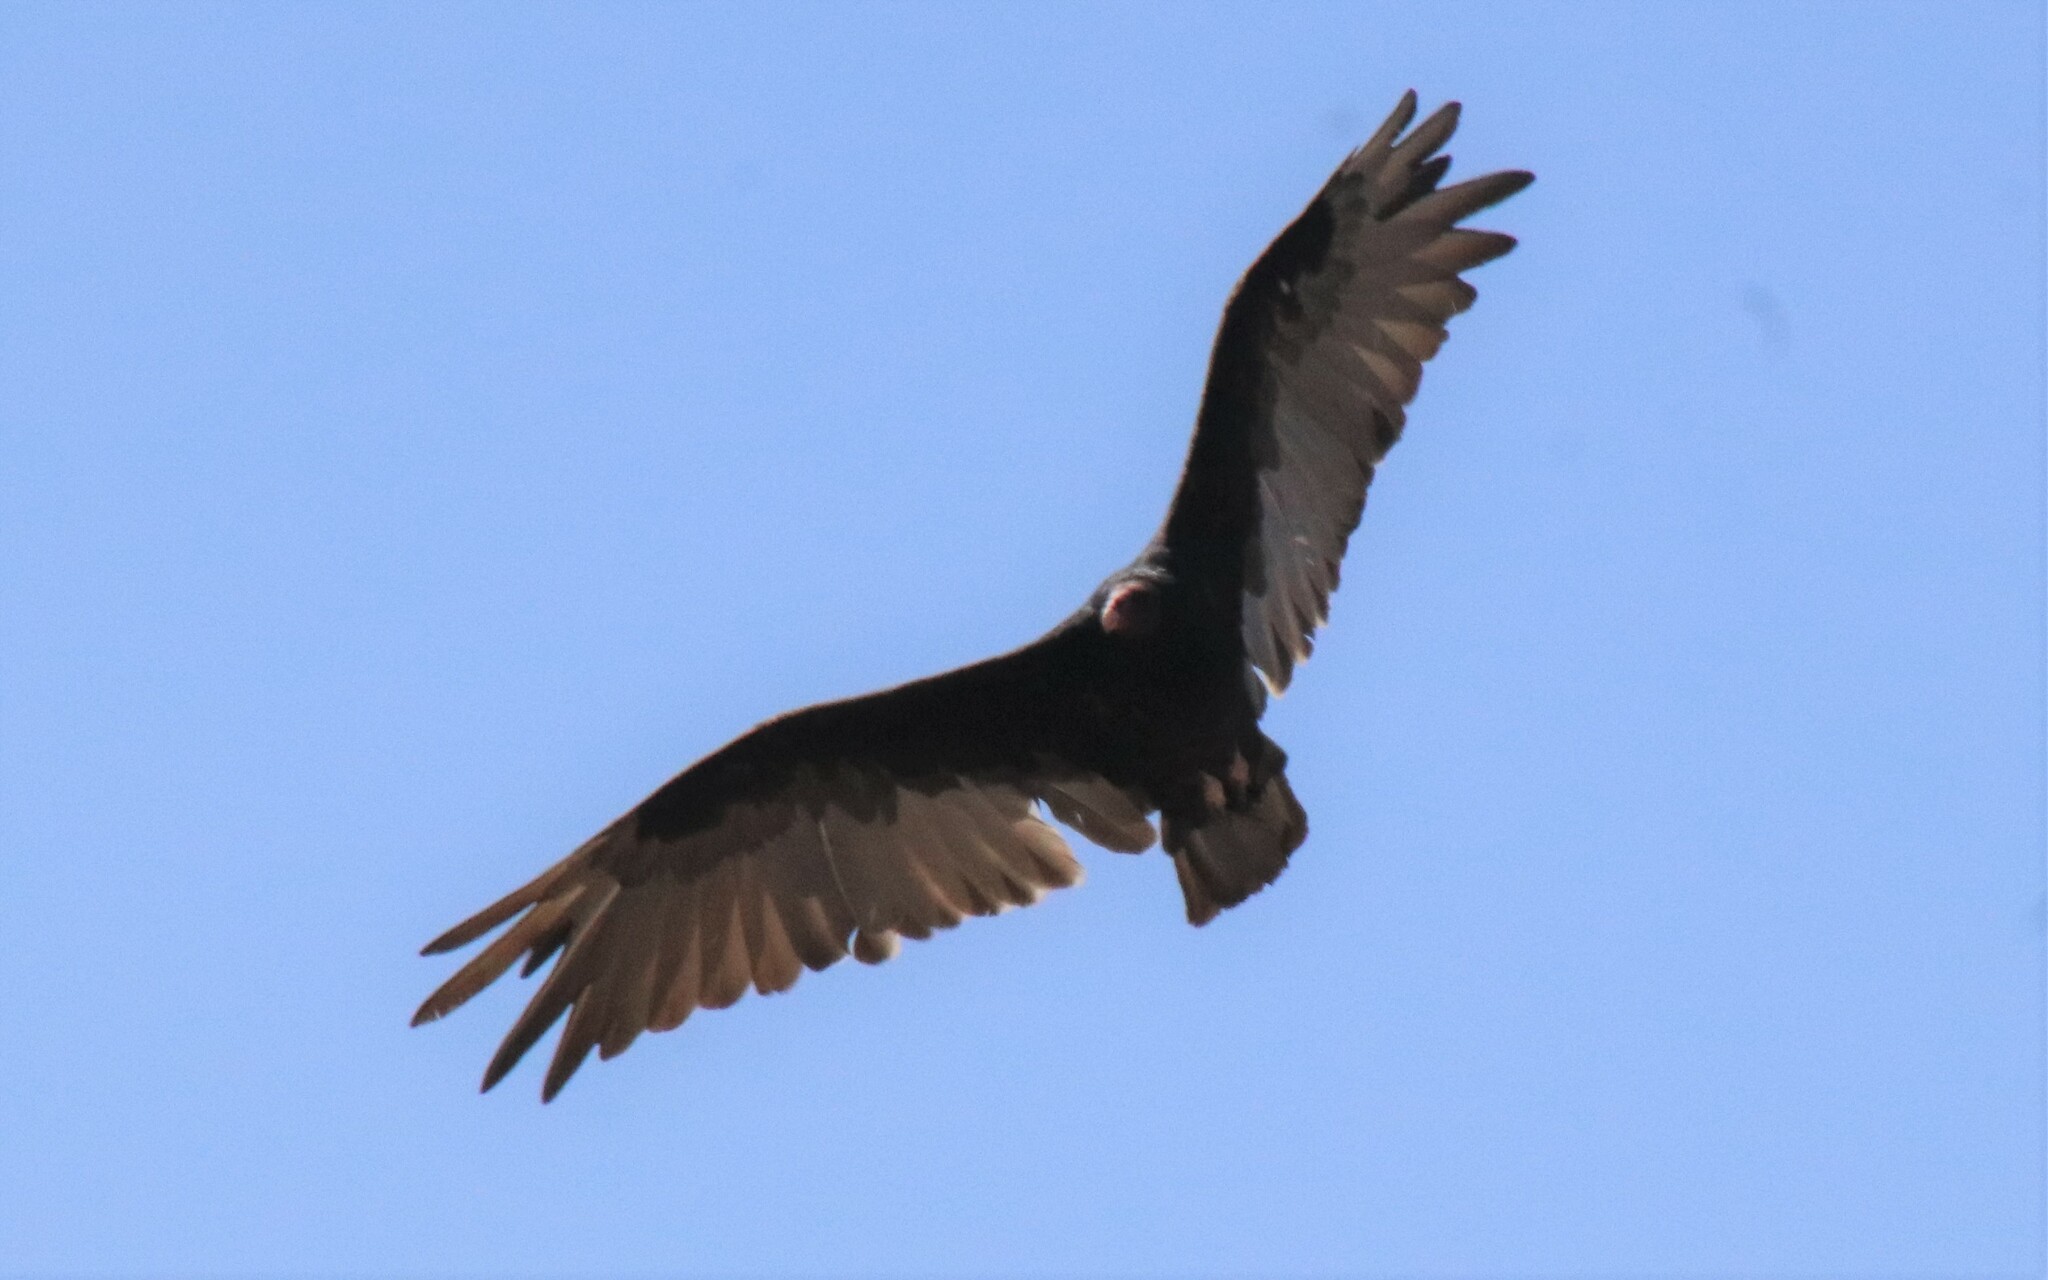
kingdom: Animalia
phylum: Chordata
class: Aves
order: Accipitriformes
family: Cathartidae
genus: Cathartes
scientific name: Cathartes aura
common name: Turkey vulture
